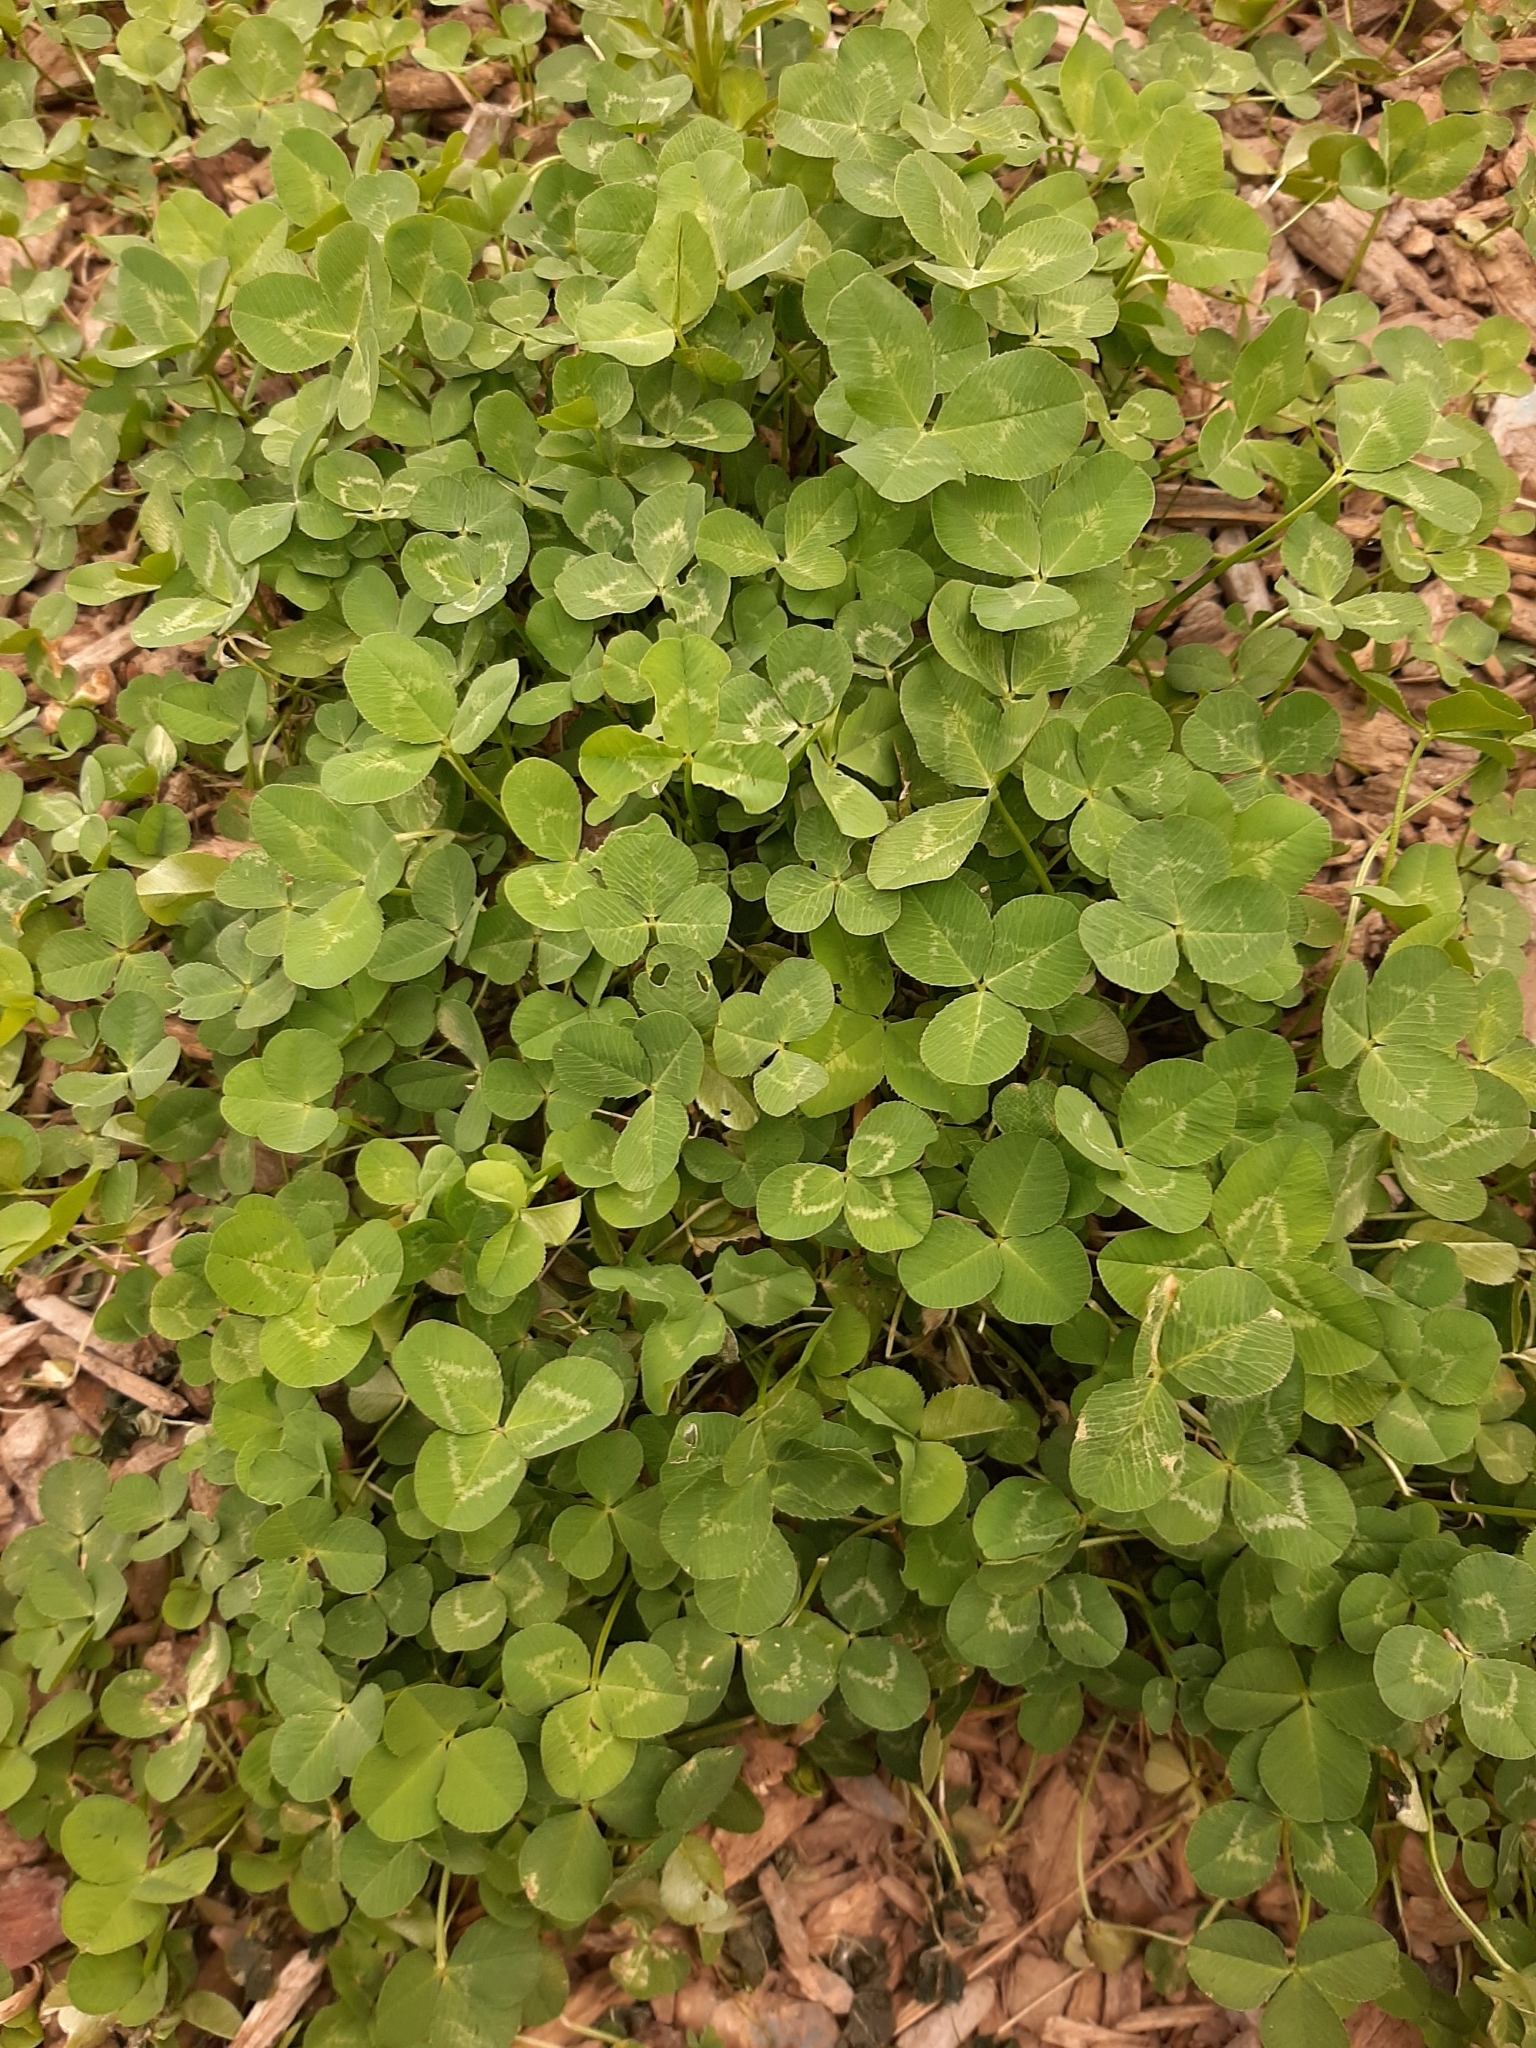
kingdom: Plantae
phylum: Tracheophyta
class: Magnoliopsida
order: Fabales
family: Fabaceae
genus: Trifolium
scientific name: Trifolium repens
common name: White clover
